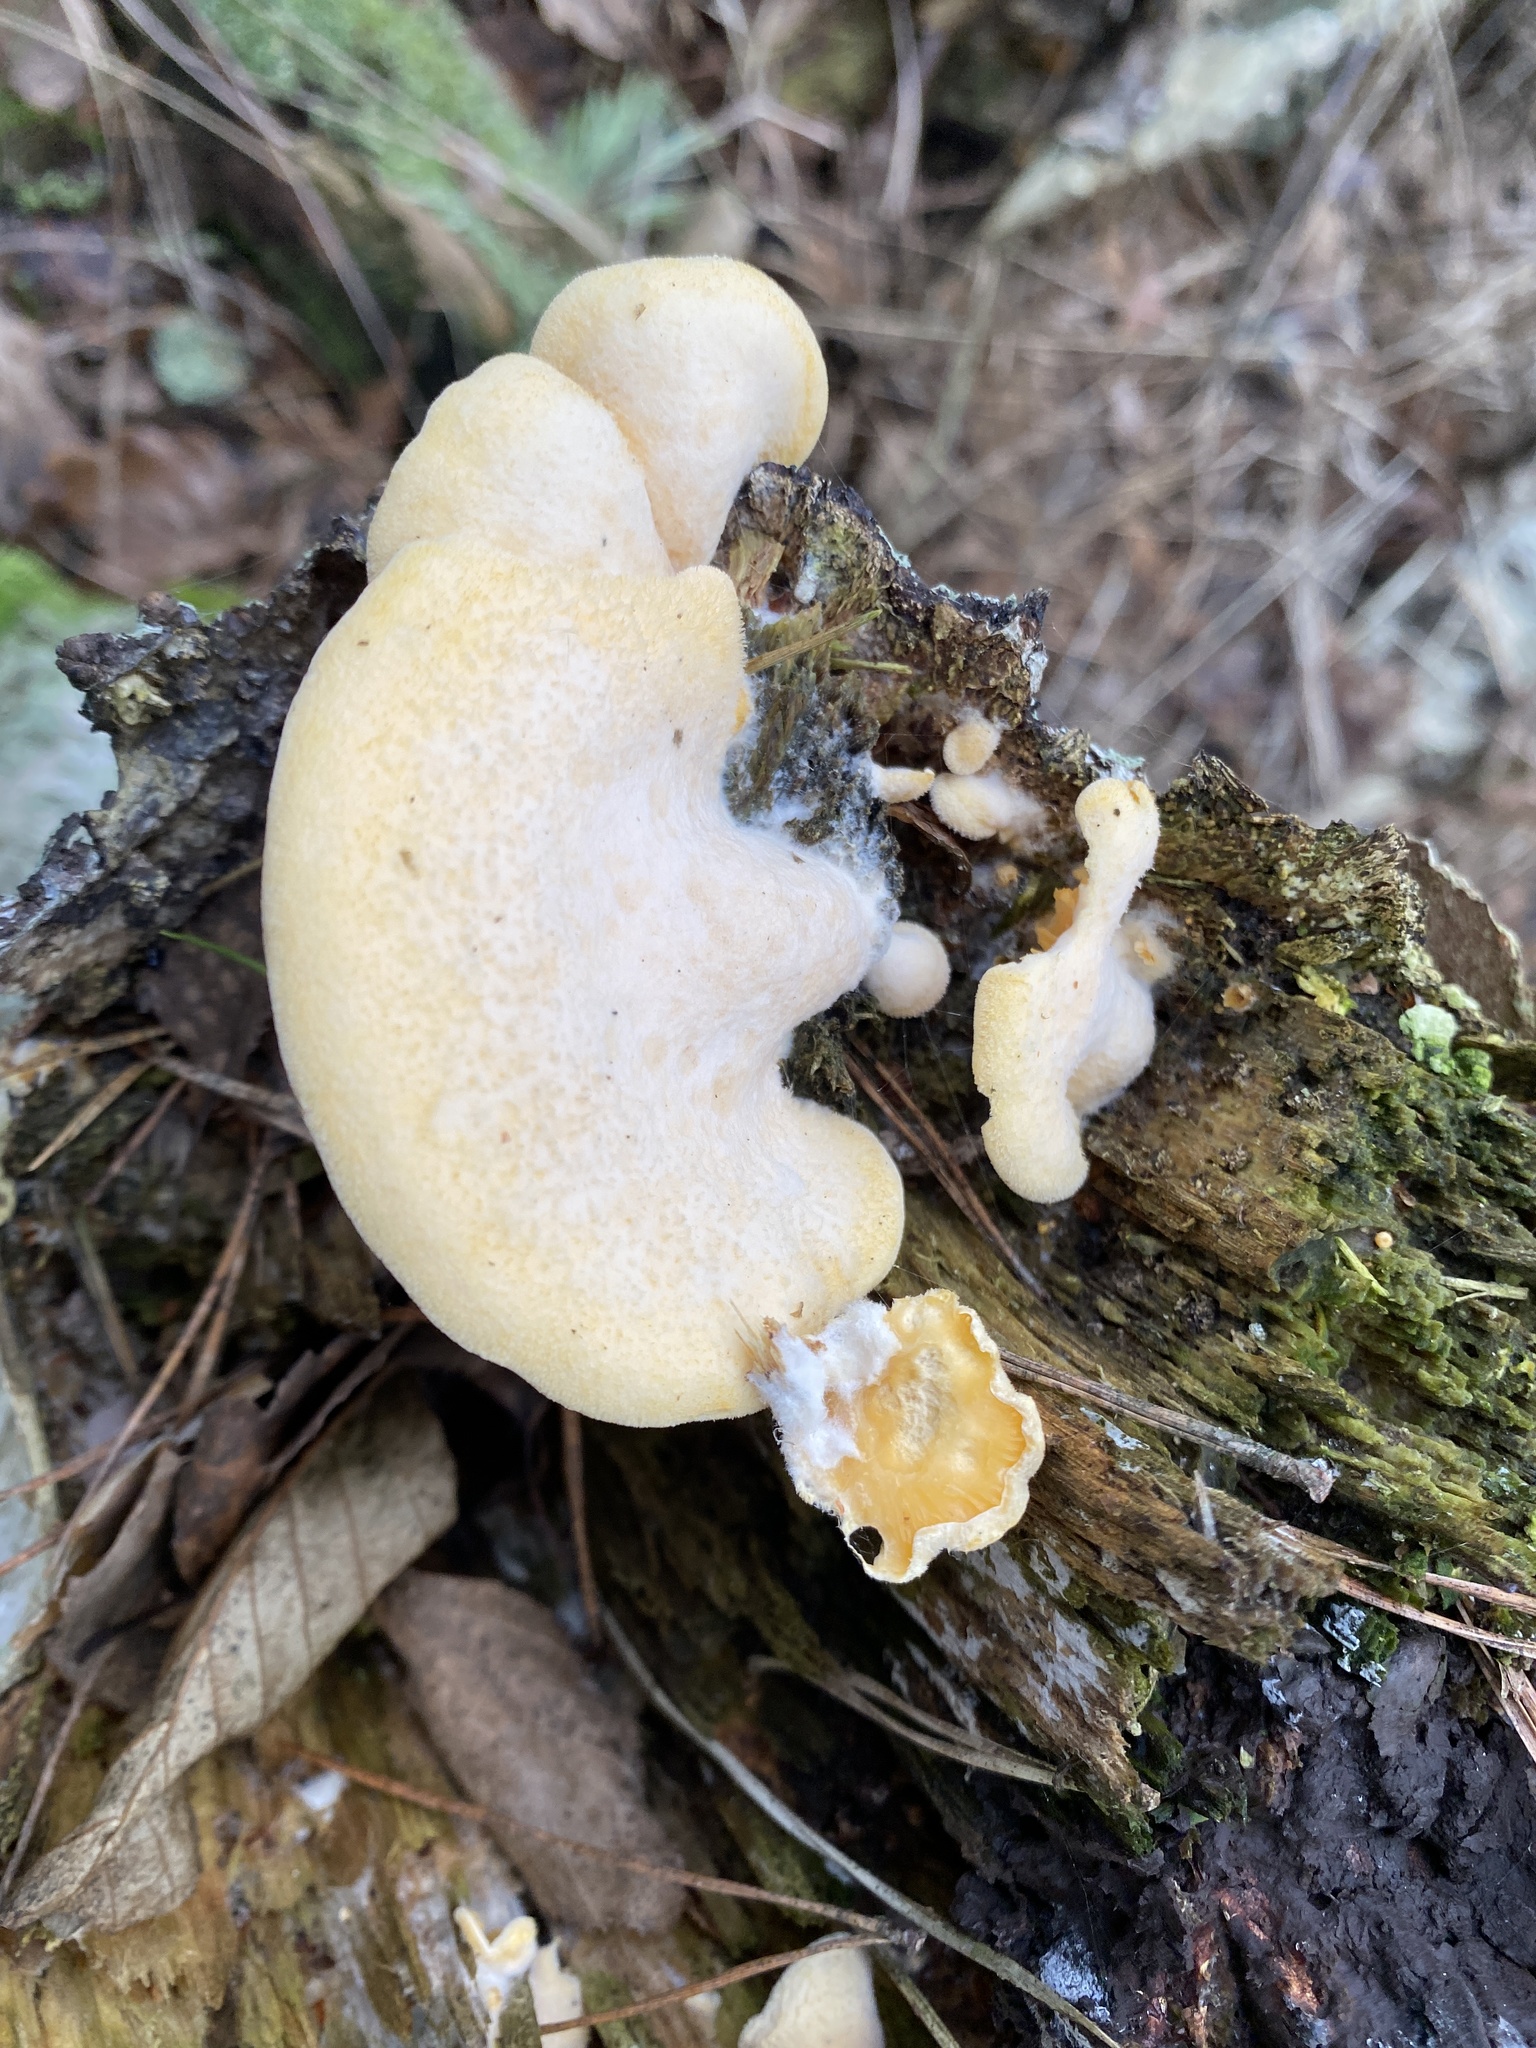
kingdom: Fungi
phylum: Basidiomycota
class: Agaricomycetes
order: Agaricales
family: Phyllotopsidaceae
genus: Phyllotopsis
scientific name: Phyllotopsis nidulans
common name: Orange mock oyster
